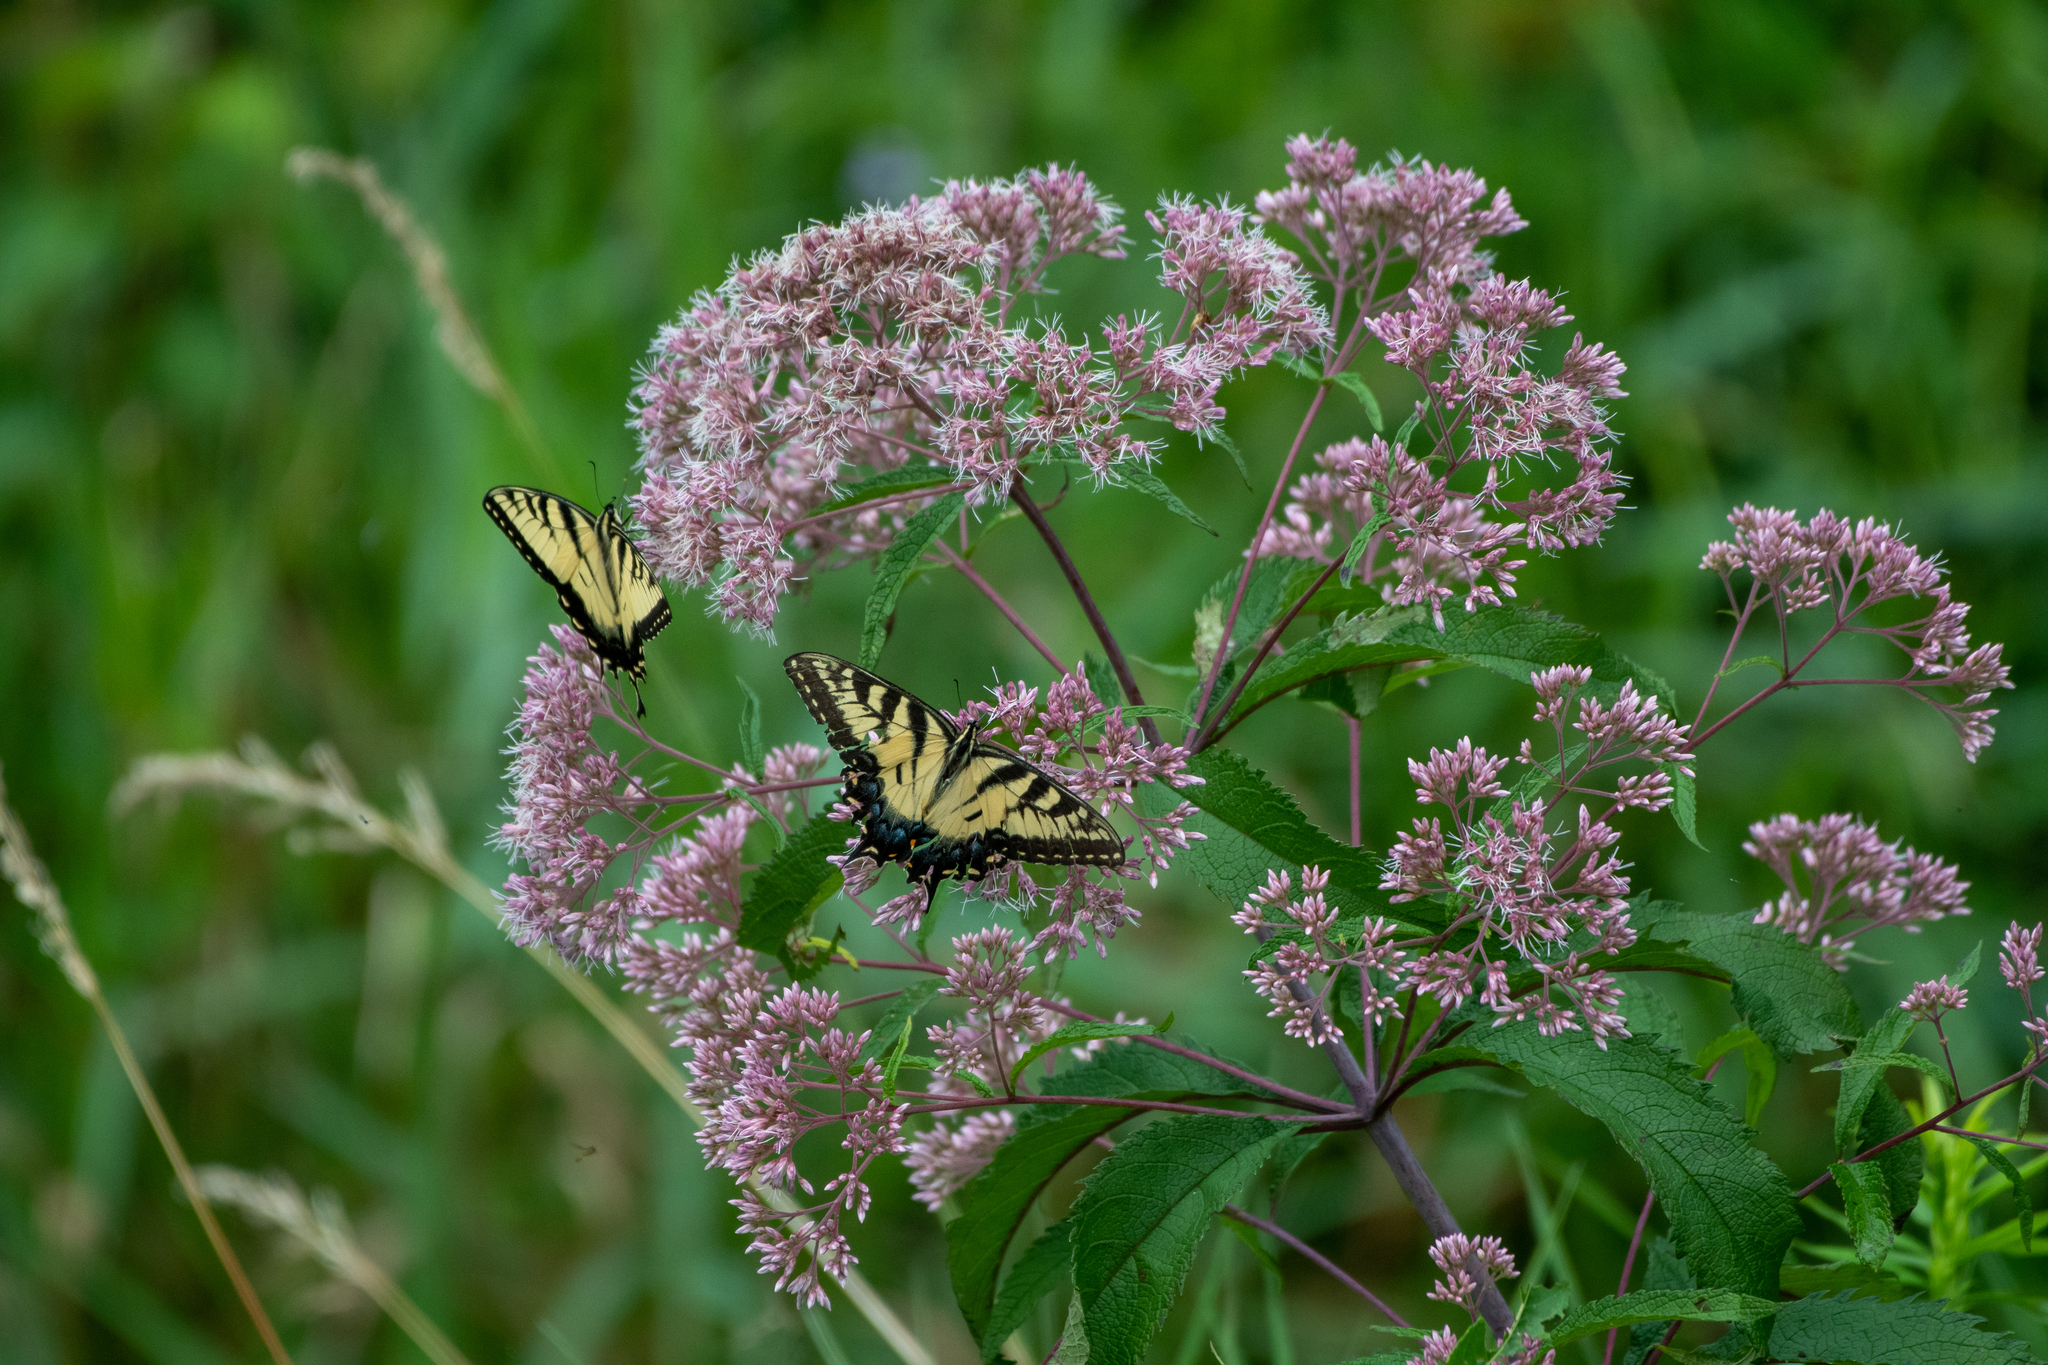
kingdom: Animalia
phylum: Arthropoda
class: Insecta
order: Lepidoptera
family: Papilionidae
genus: Papilio
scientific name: Papilio glaucus
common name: Tiger swallowtail
